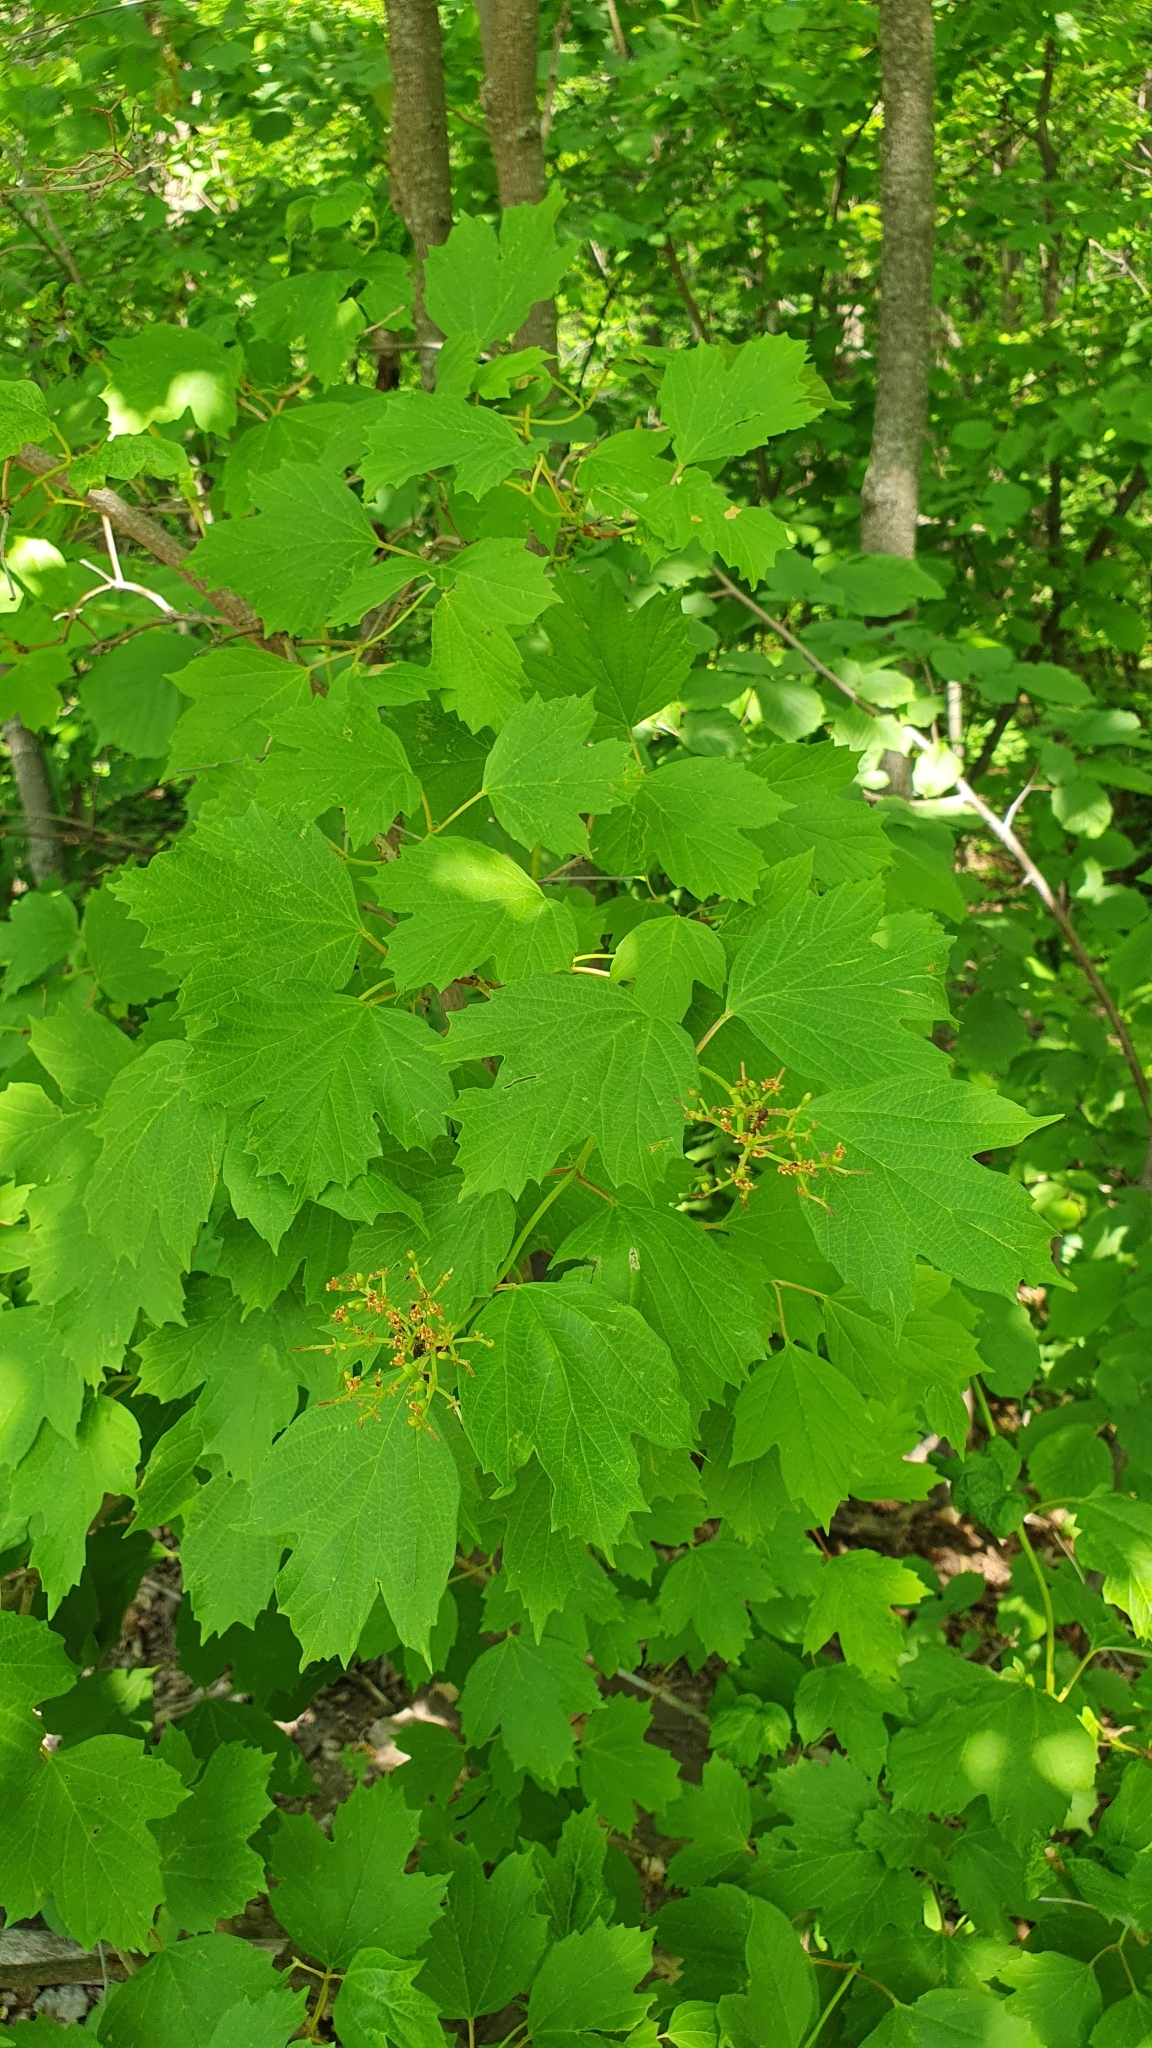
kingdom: Plantae
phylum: Tracheophyta
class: Magnoliopsida
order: Dipsacales
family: Viburnaceae
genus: Viburnum
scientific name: Viburnum opulus
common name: Guelder-rose
